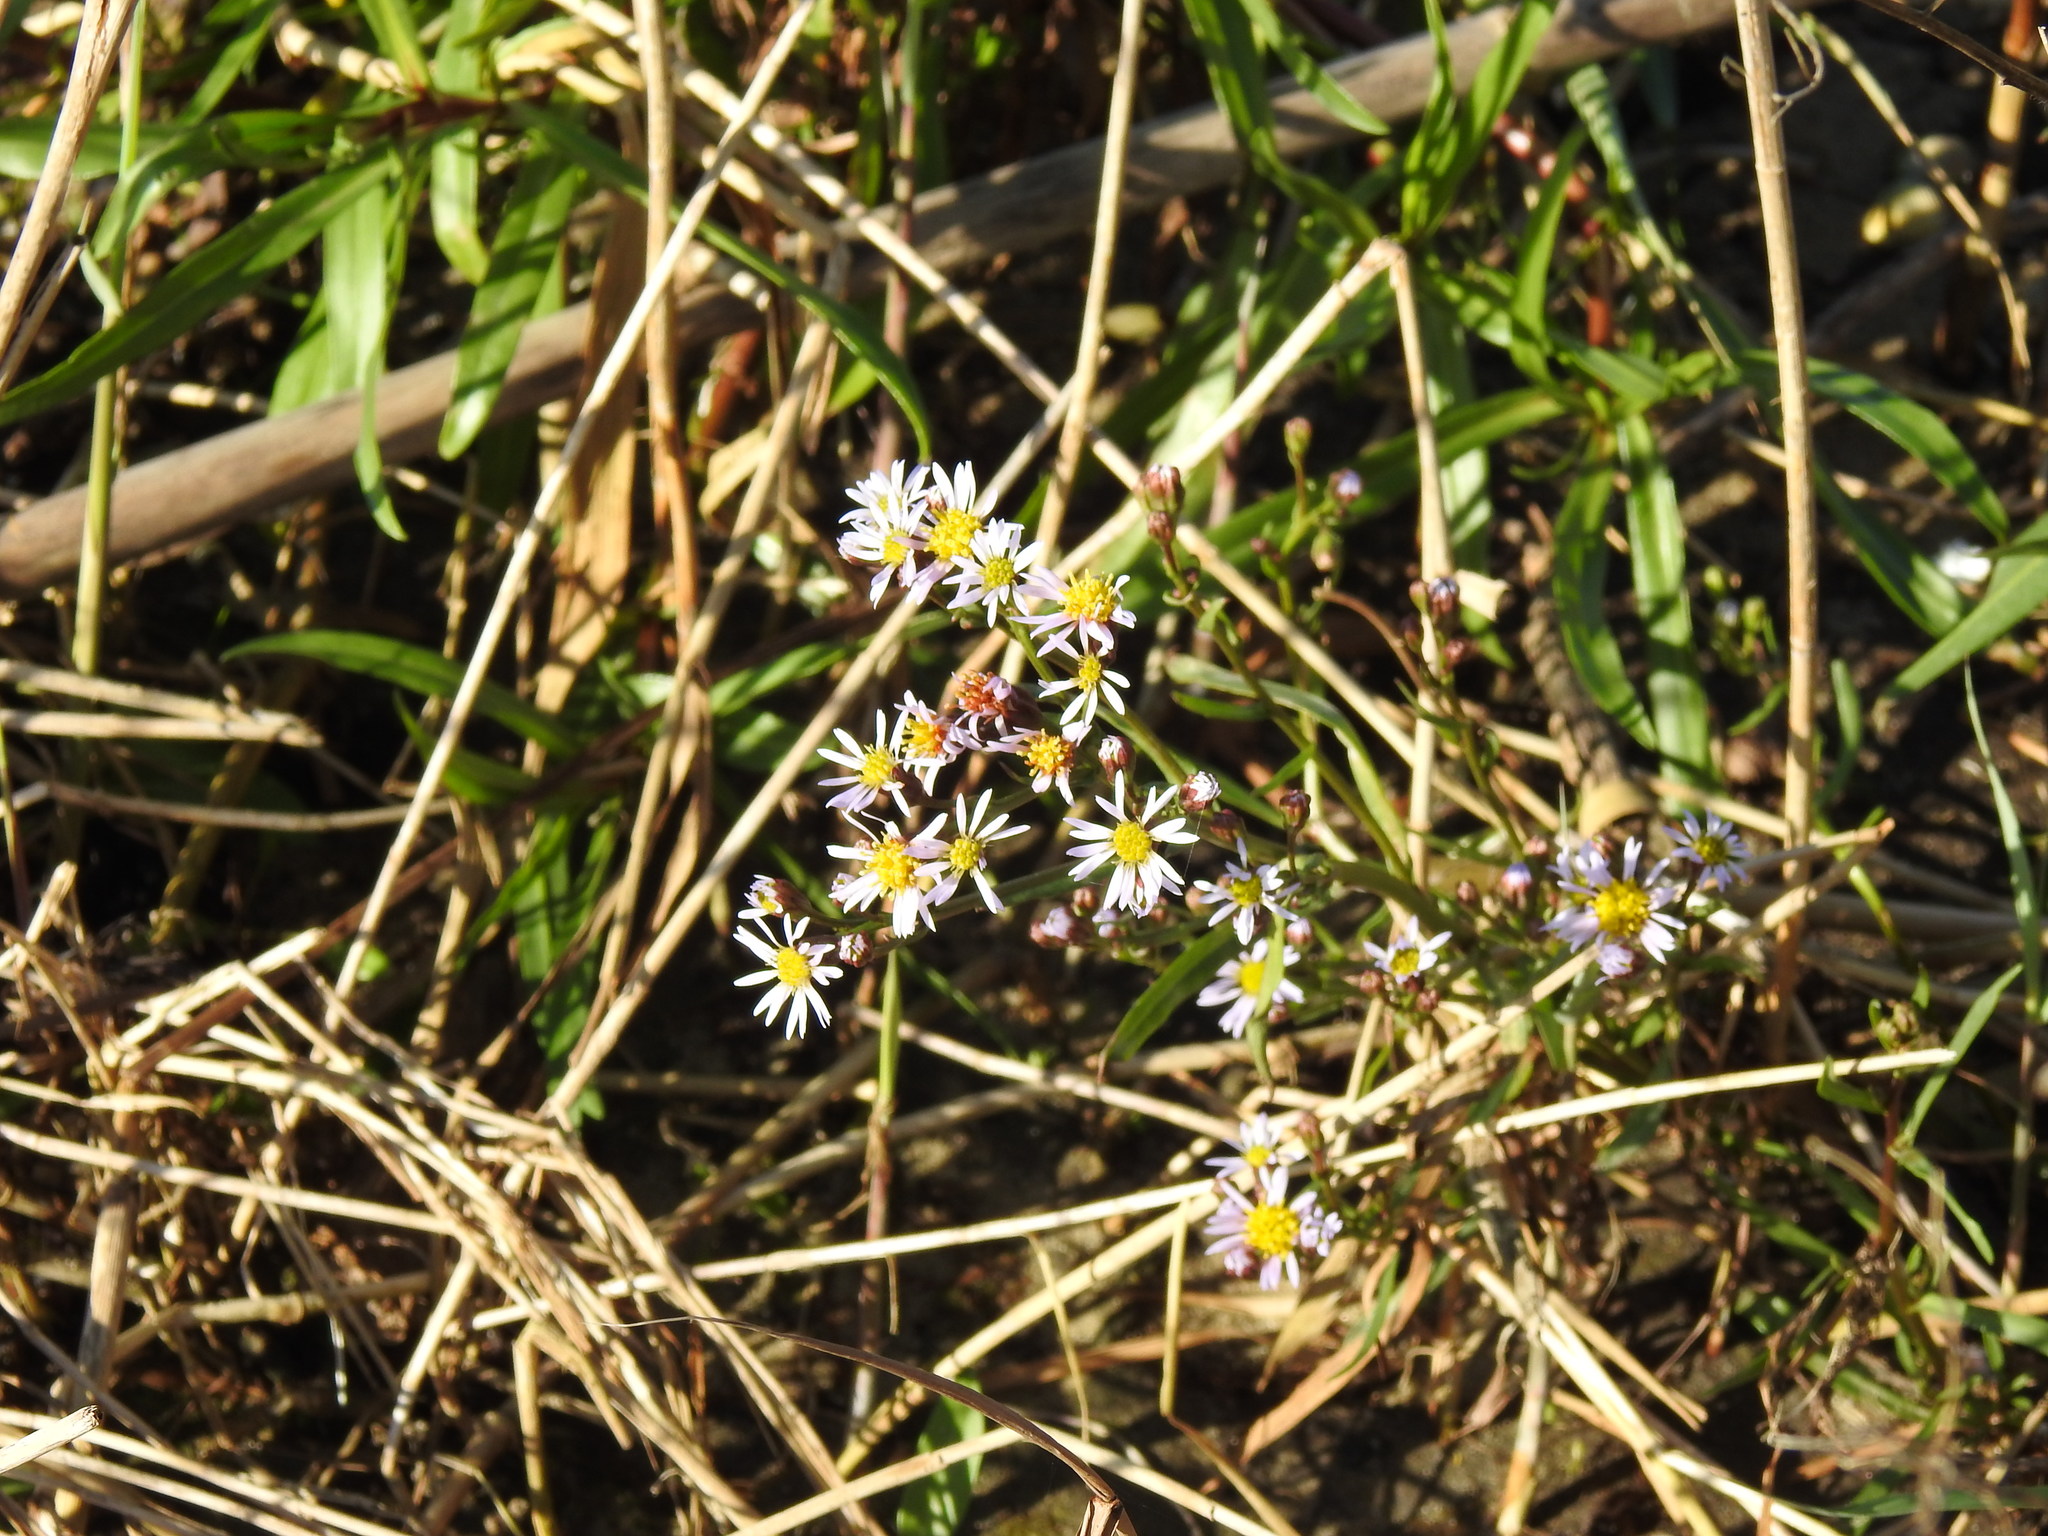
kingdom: Plantae
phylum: Tracheophyta
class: Magnoliopsida
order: Asterales
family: Asteraceae
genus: Tripolium
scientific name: Tripolium pannonicum
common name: Sea aster
